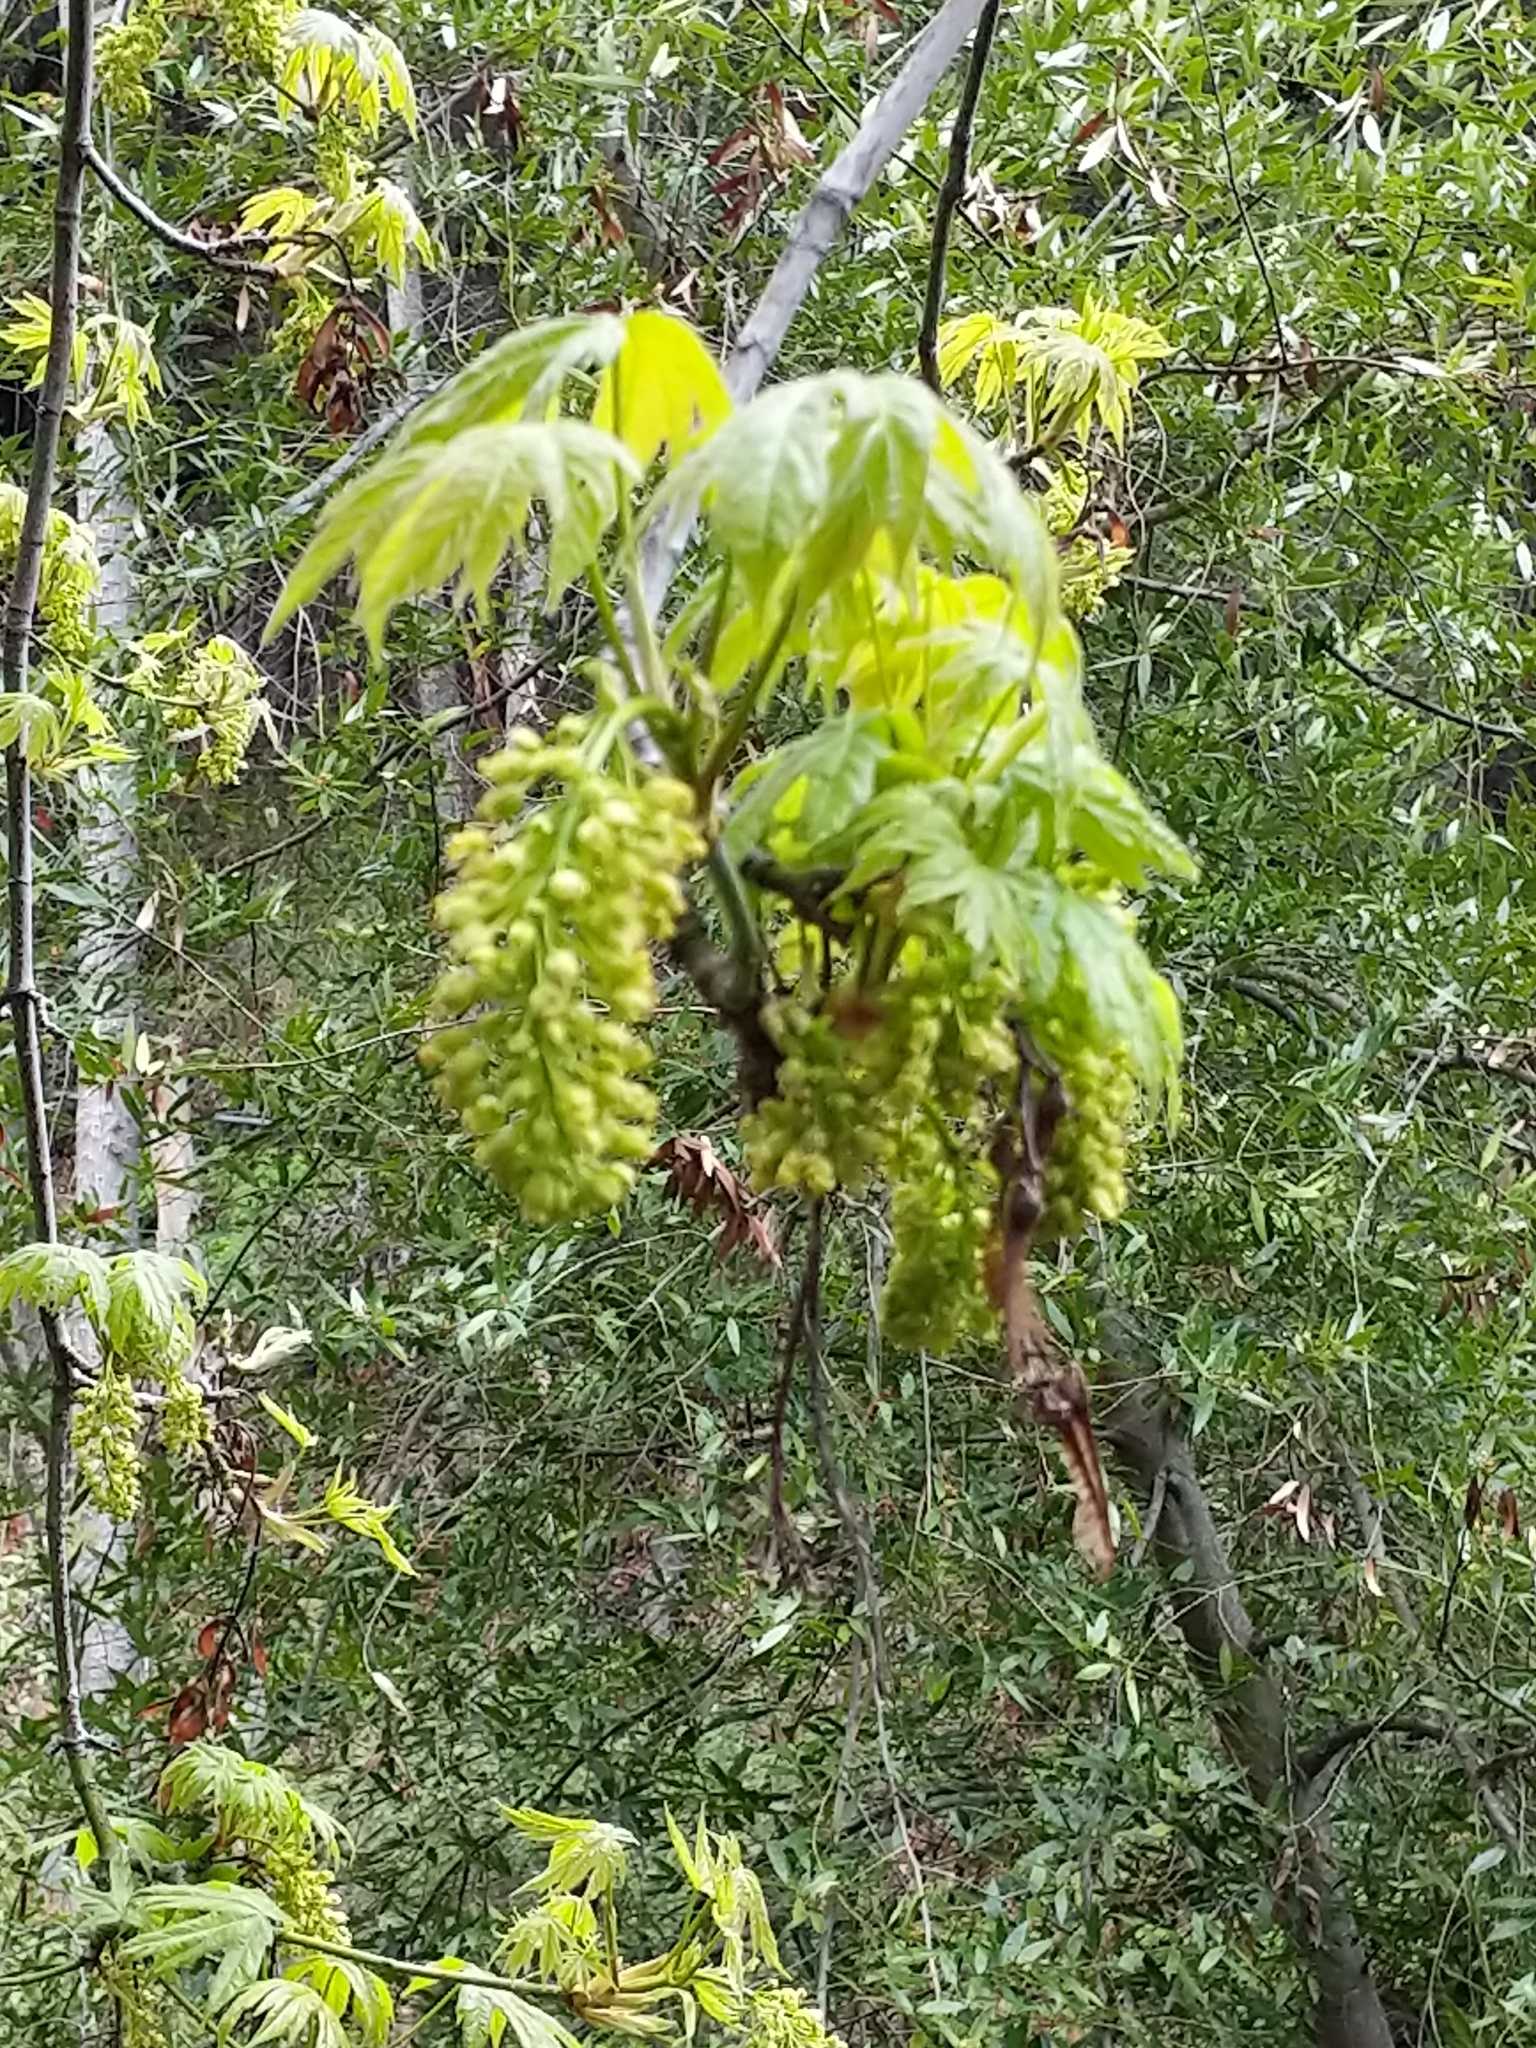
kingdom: Plantae
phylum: Tracheophyta
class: Magnoliopsida
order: Sapindales
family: Sapindaceae
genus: Acer
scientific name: Acer macrophyllum
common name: Oregon maple
